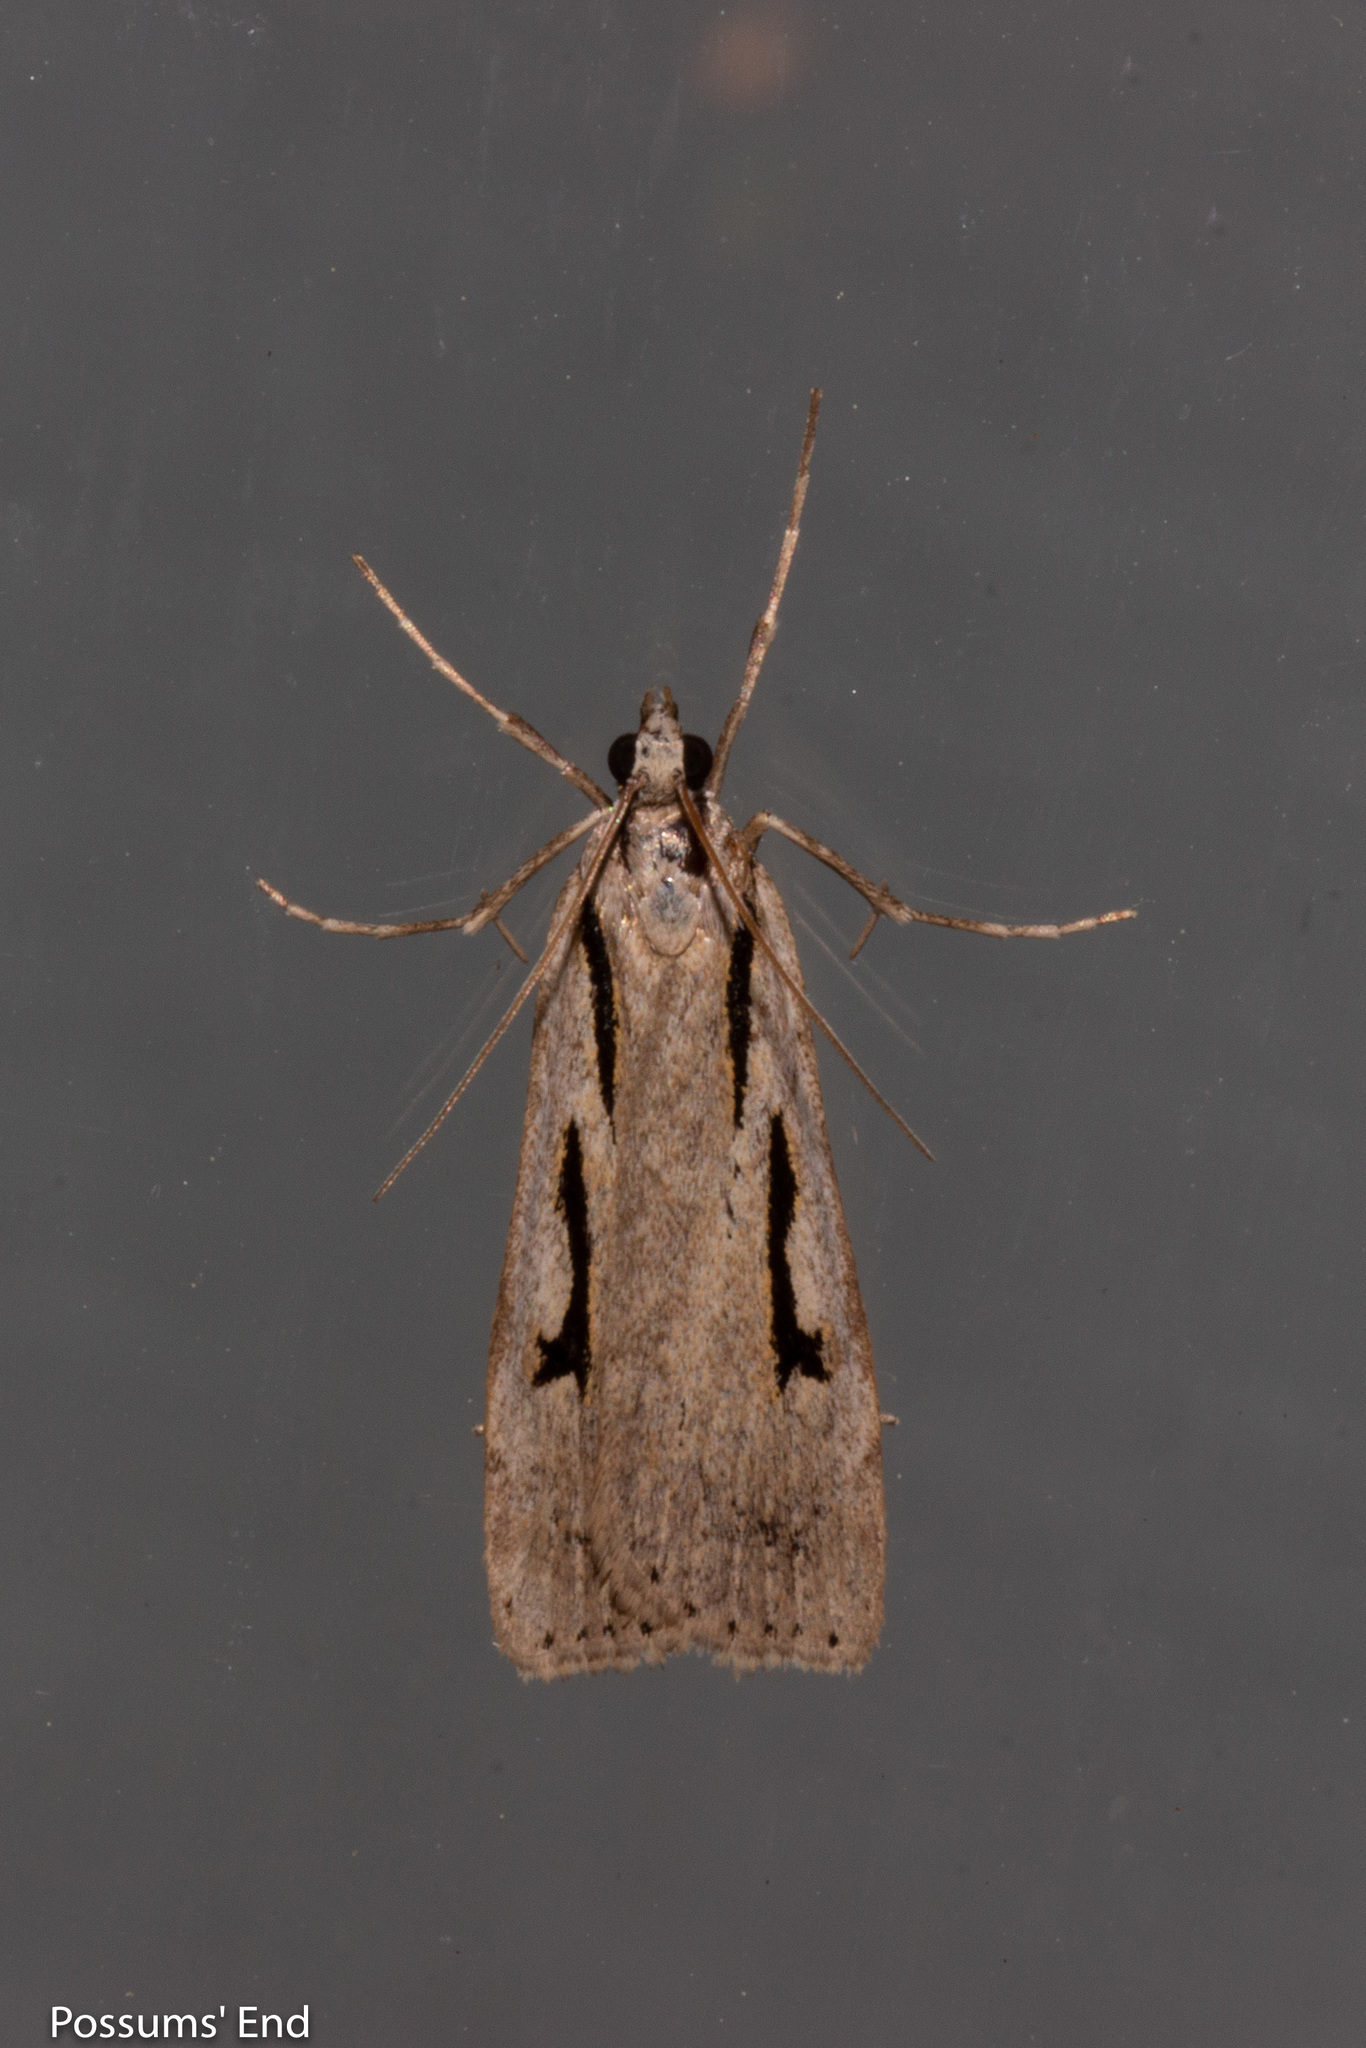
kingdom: Animalia
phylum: Arthropoda
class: Insecta
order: Lepidoptera
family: Crambidae
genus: Scoparia
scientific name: Scoparia rotuellus
